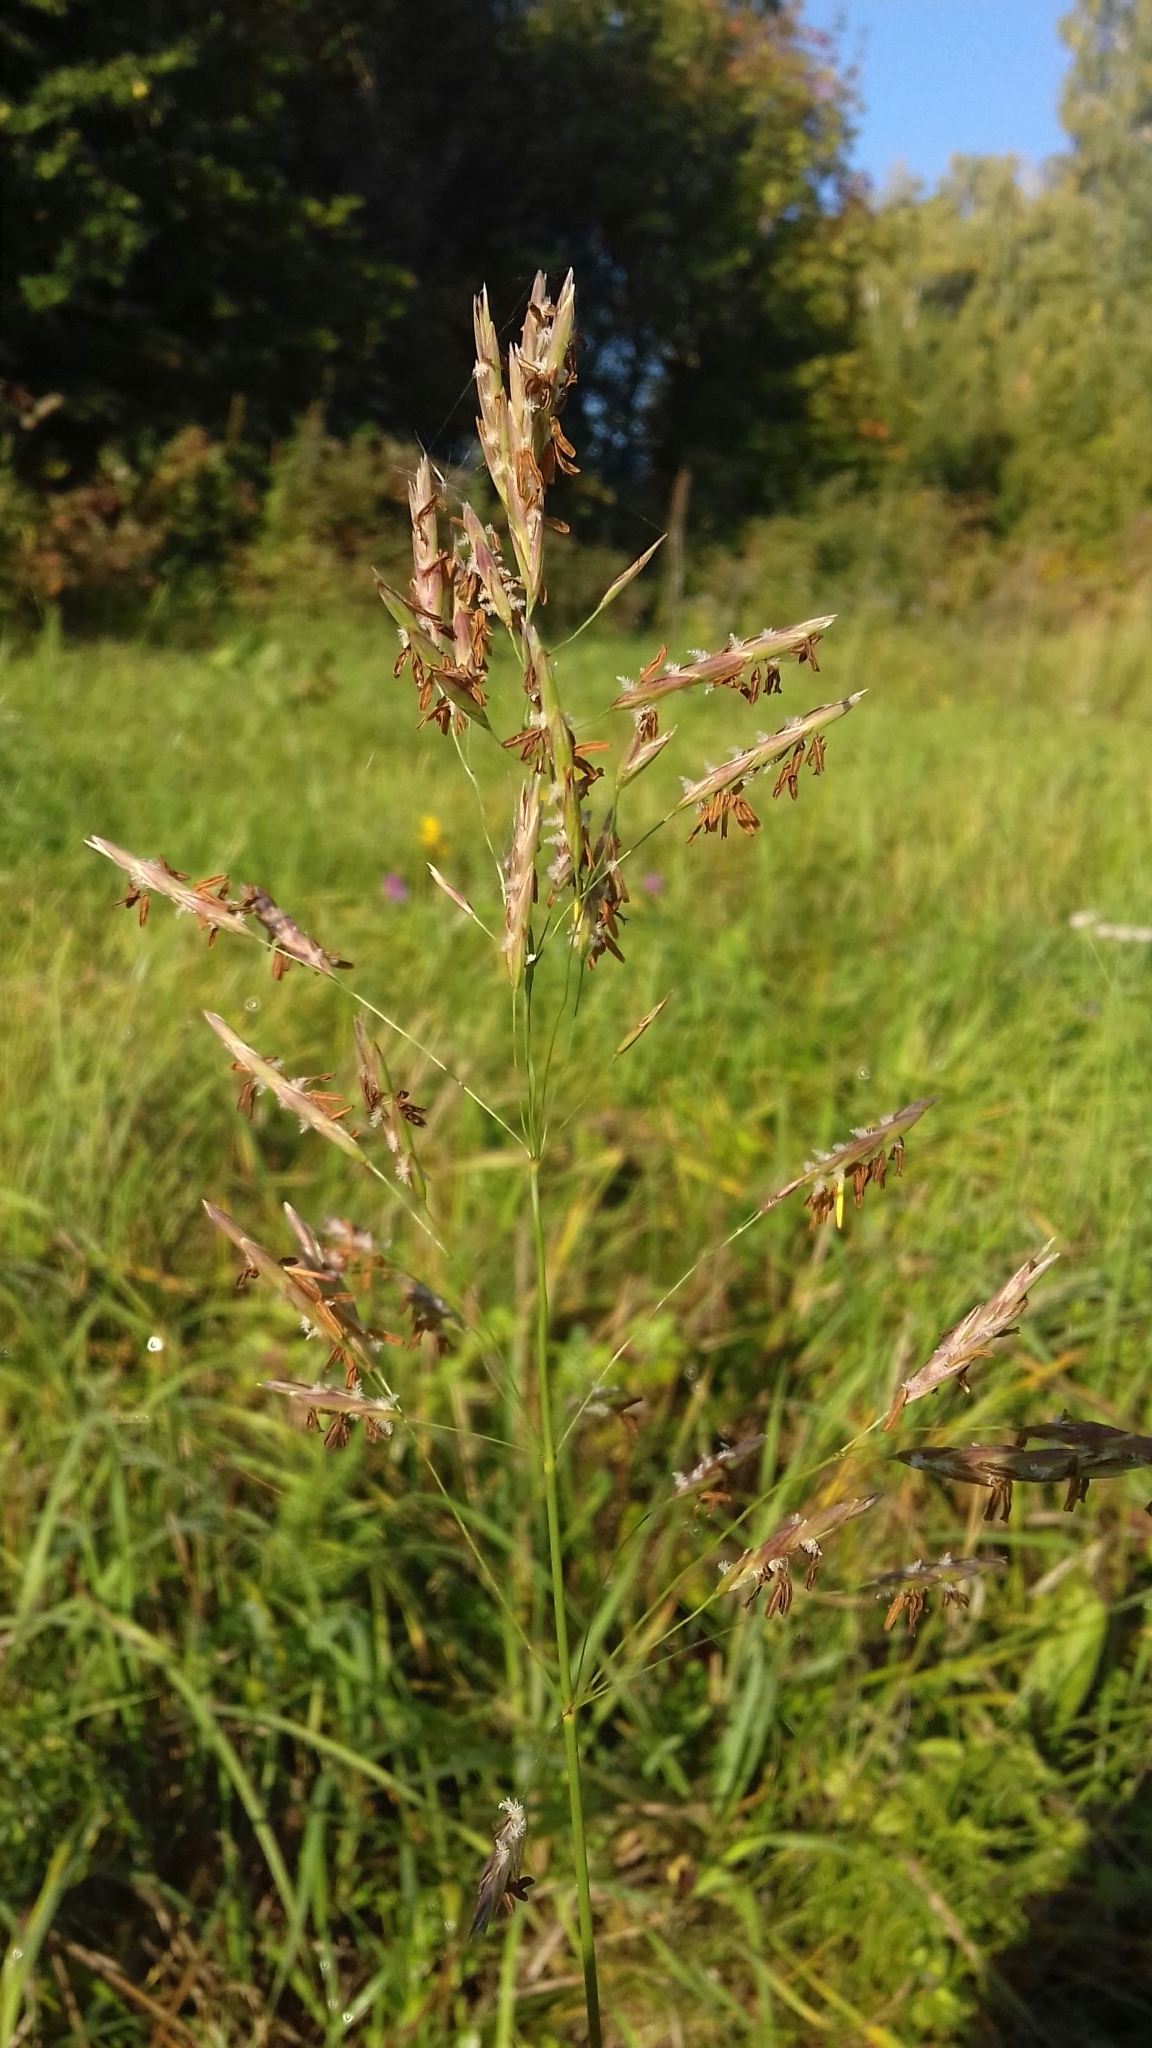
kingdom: Plantae
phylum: Tracheophyta
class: Liliopsida
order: Poales
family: Poaceae
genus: Bromus
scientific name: Bromus inermis
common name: Smooth brome
